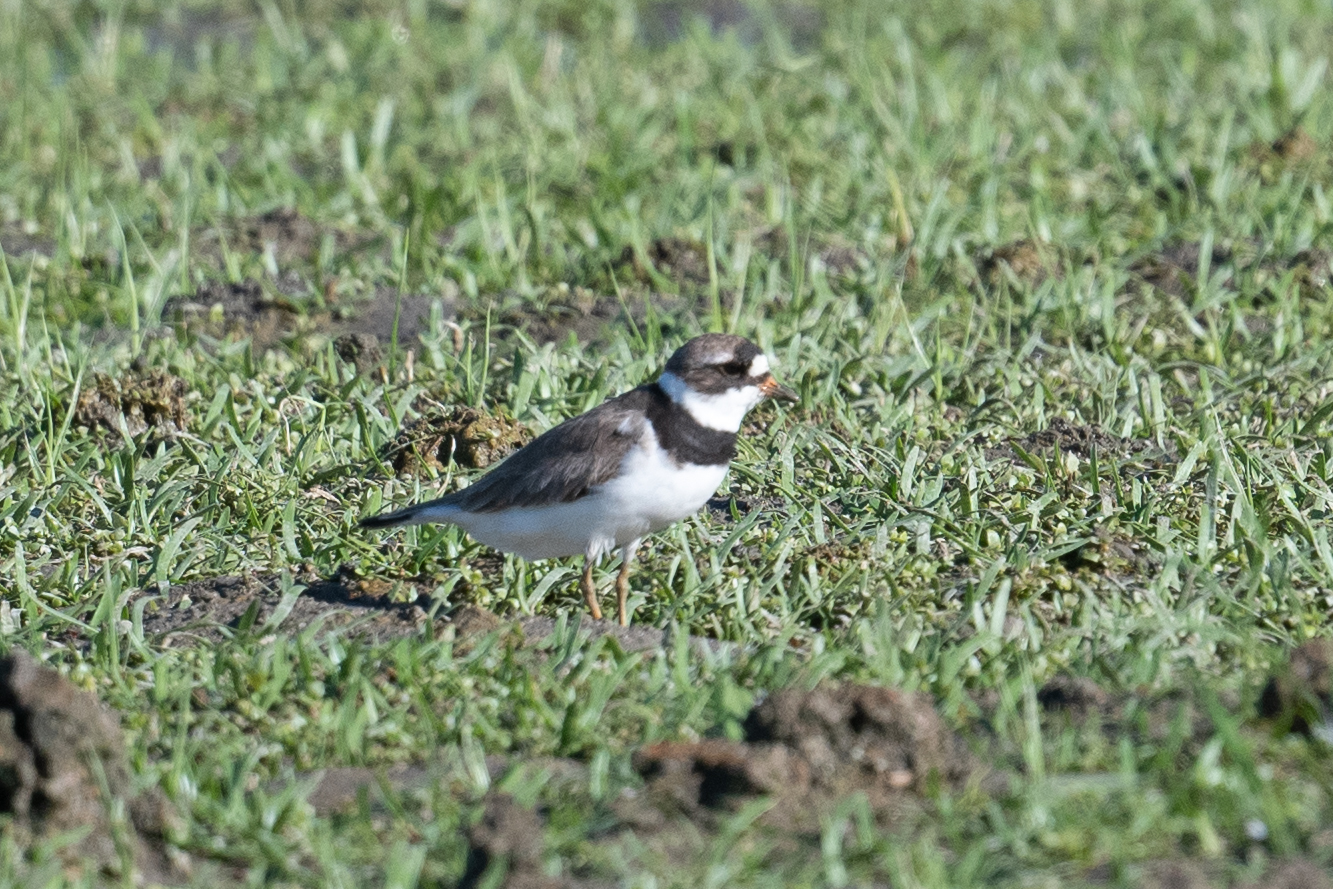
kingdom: Animalia
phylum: Chordata
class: Aves
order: Charadriiformes
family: Charadriidae
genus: Charadrius
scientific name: Charadrius semipalmatus
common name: Semipalmated plover
